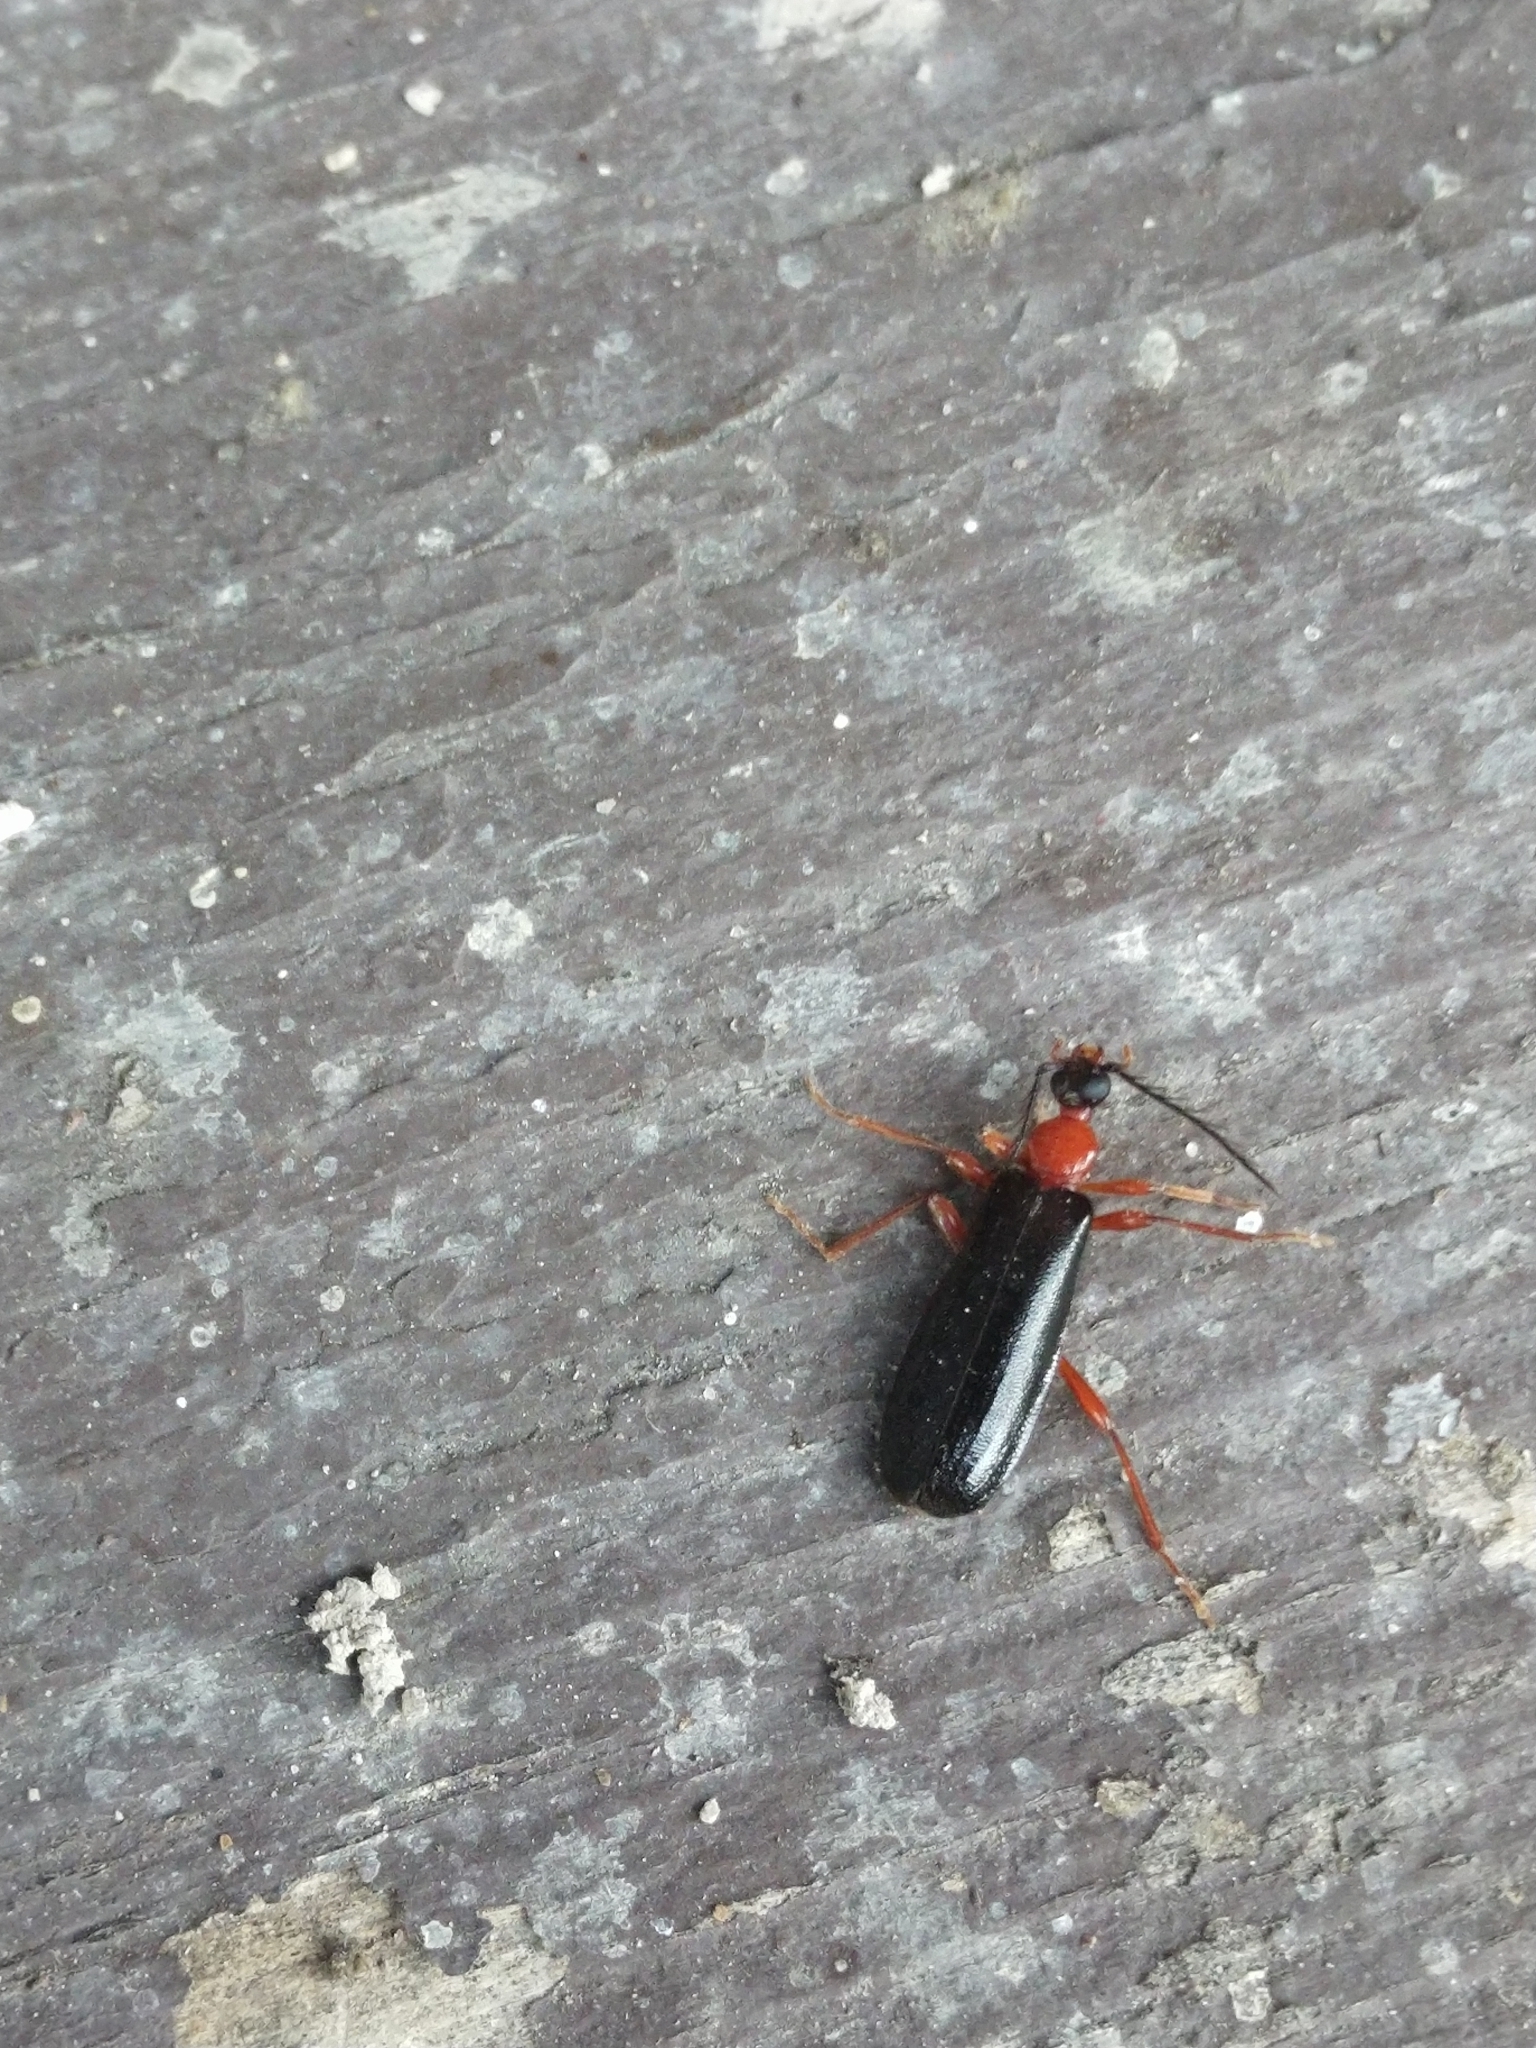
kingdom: Animalia
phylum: Arthropoda
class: Insecta
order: Coleoptera
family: Pyrochroidae
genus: Dendroides
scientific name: Dendroides canadensis
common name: Canada fire-colored beetle
